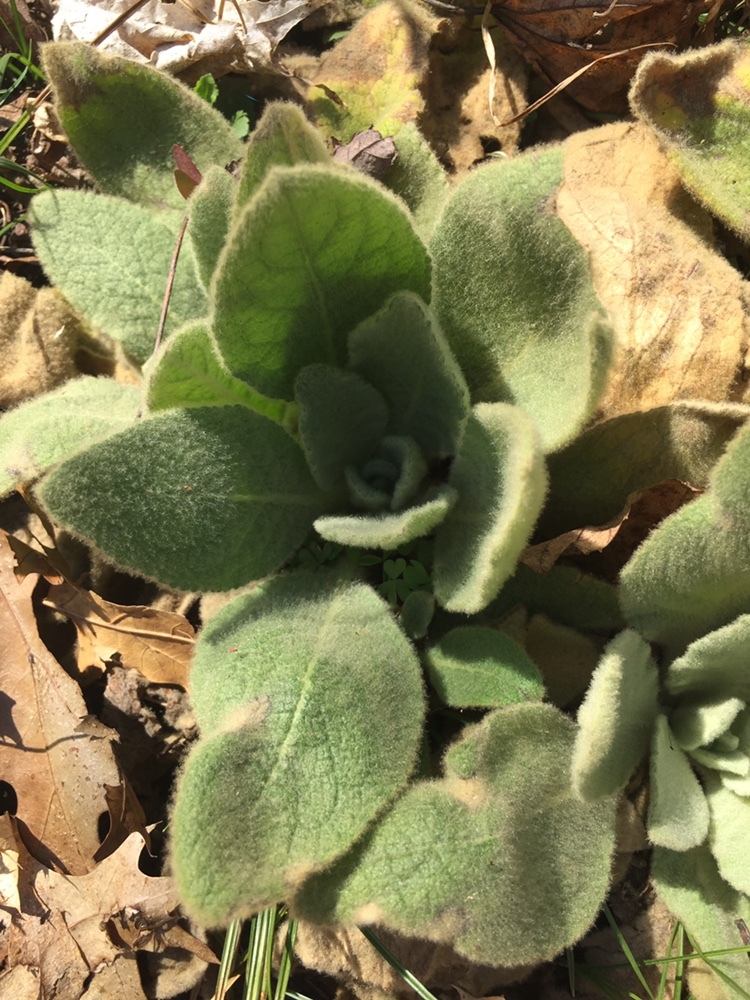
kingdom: Plantae
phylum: Tracheophyta
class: Magnoliopsida
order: Lamiales
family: Scrophulariaceae
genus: Verbascum
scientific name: Verbascum thapsus
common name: Common mullein
